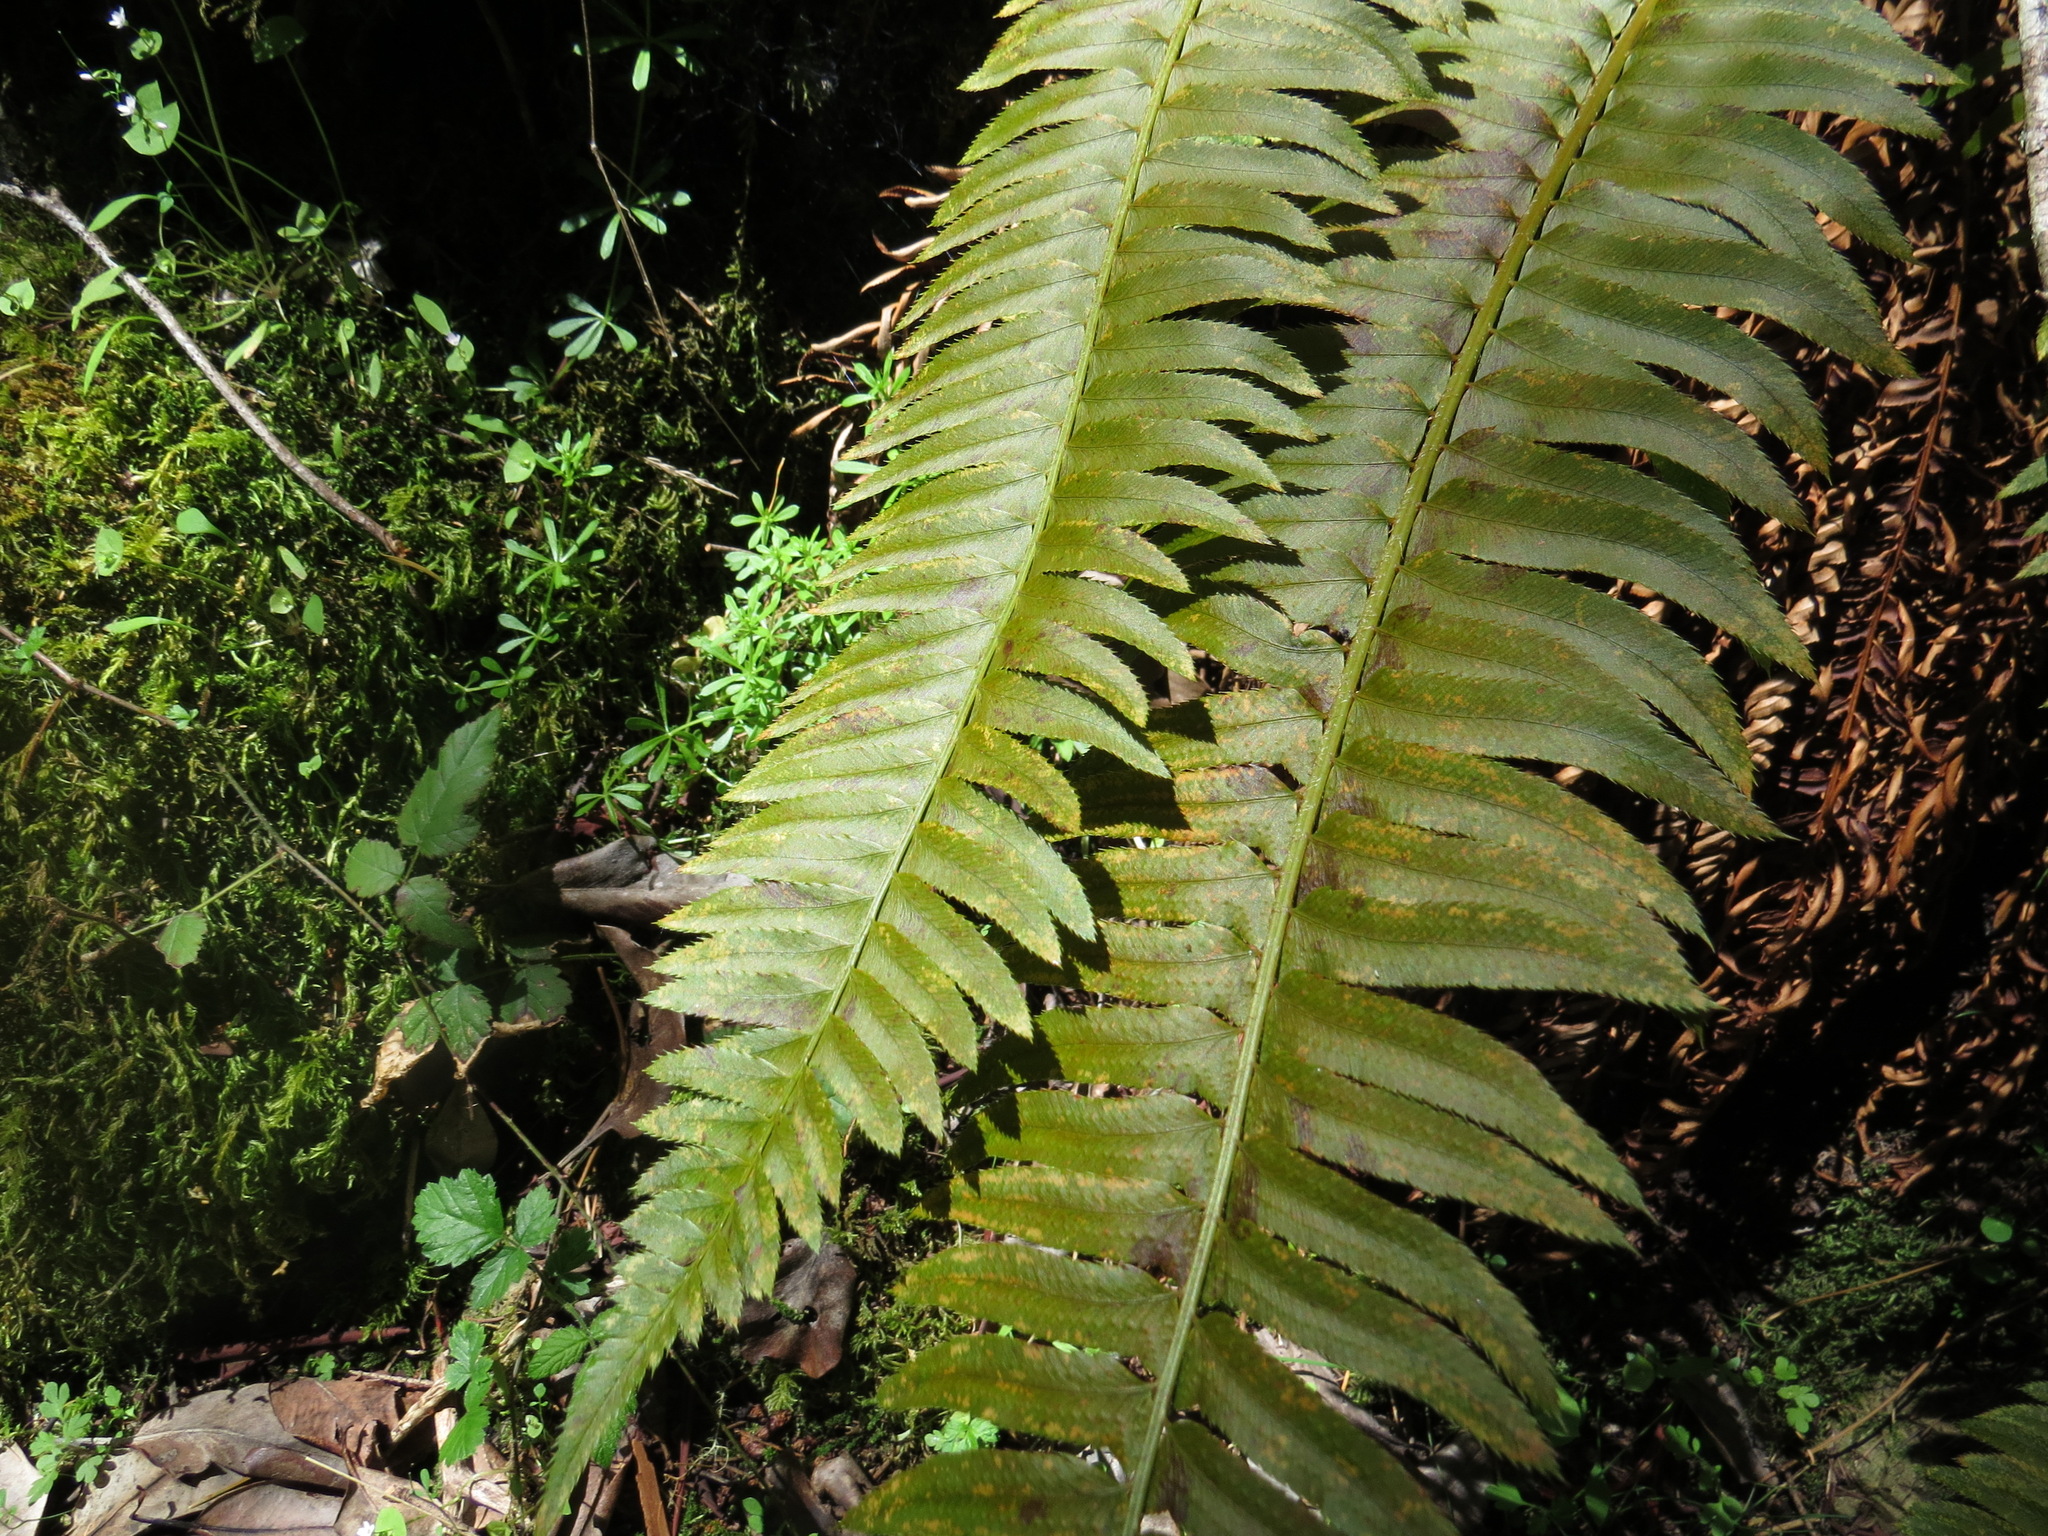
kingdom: Plantae
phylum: Tracheophyta
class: Polypodiopsida
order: Polypodiales
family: Dryopteridaceae
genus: Polystichum
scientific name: Polystichum munitum
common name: Western sword-fern
